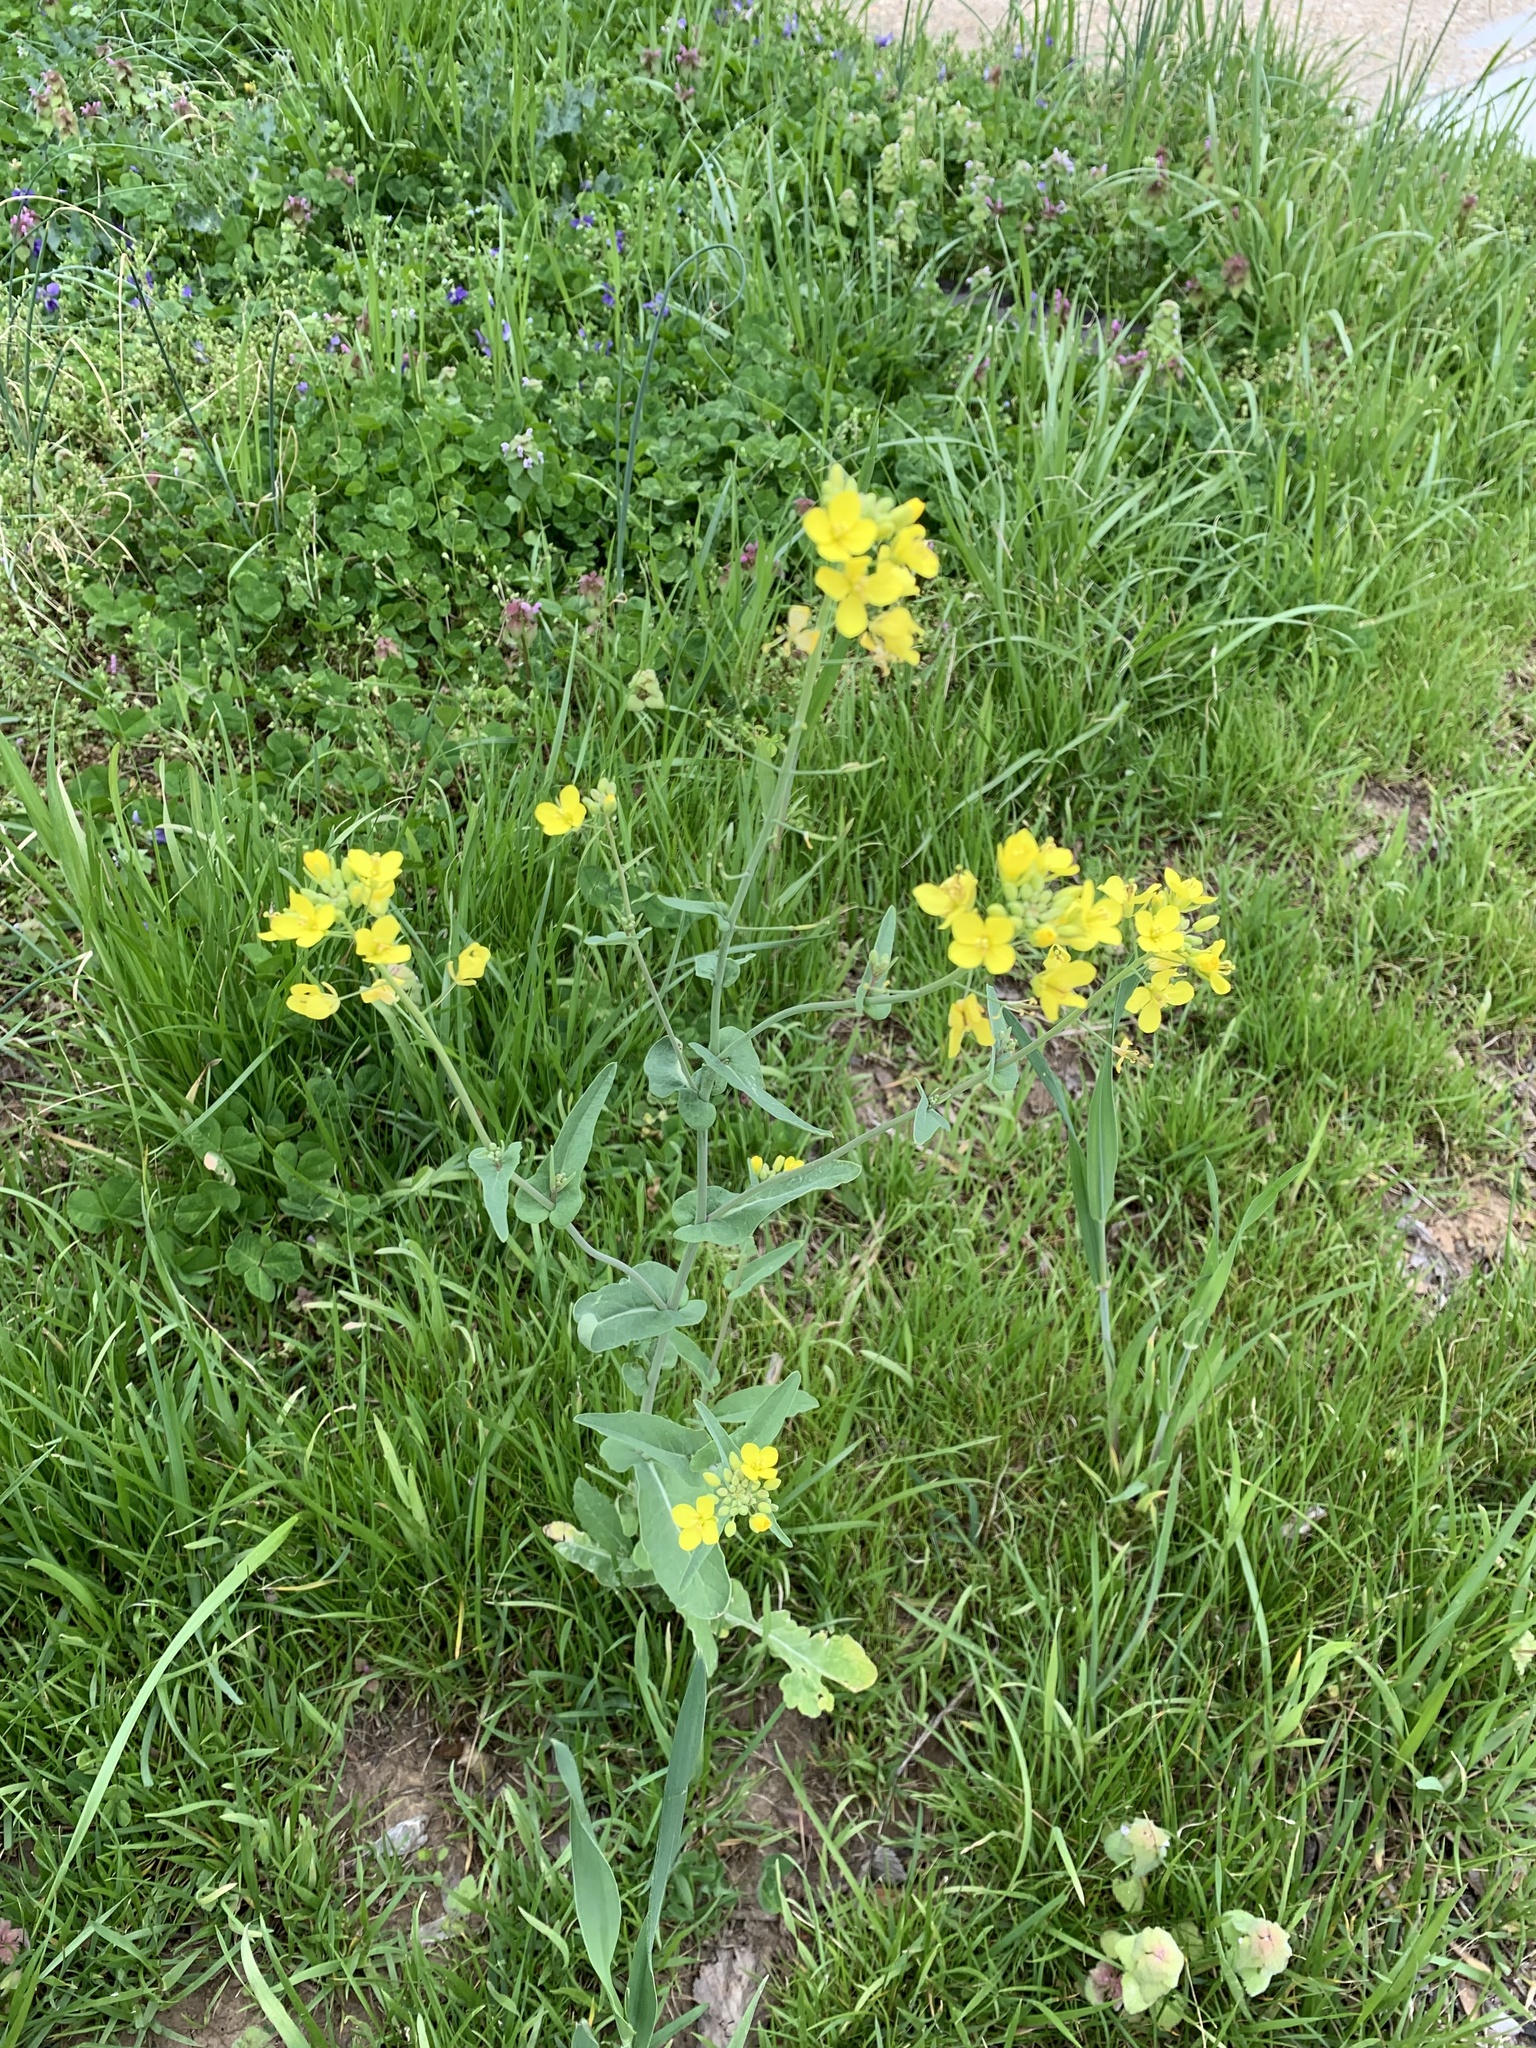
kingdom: Plantae
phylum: Tracheophyta
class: Magnoliopsida
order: Brassicales
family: Brassicaceae
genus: Brassica
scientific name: Brassica rapa
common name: Field mustard
